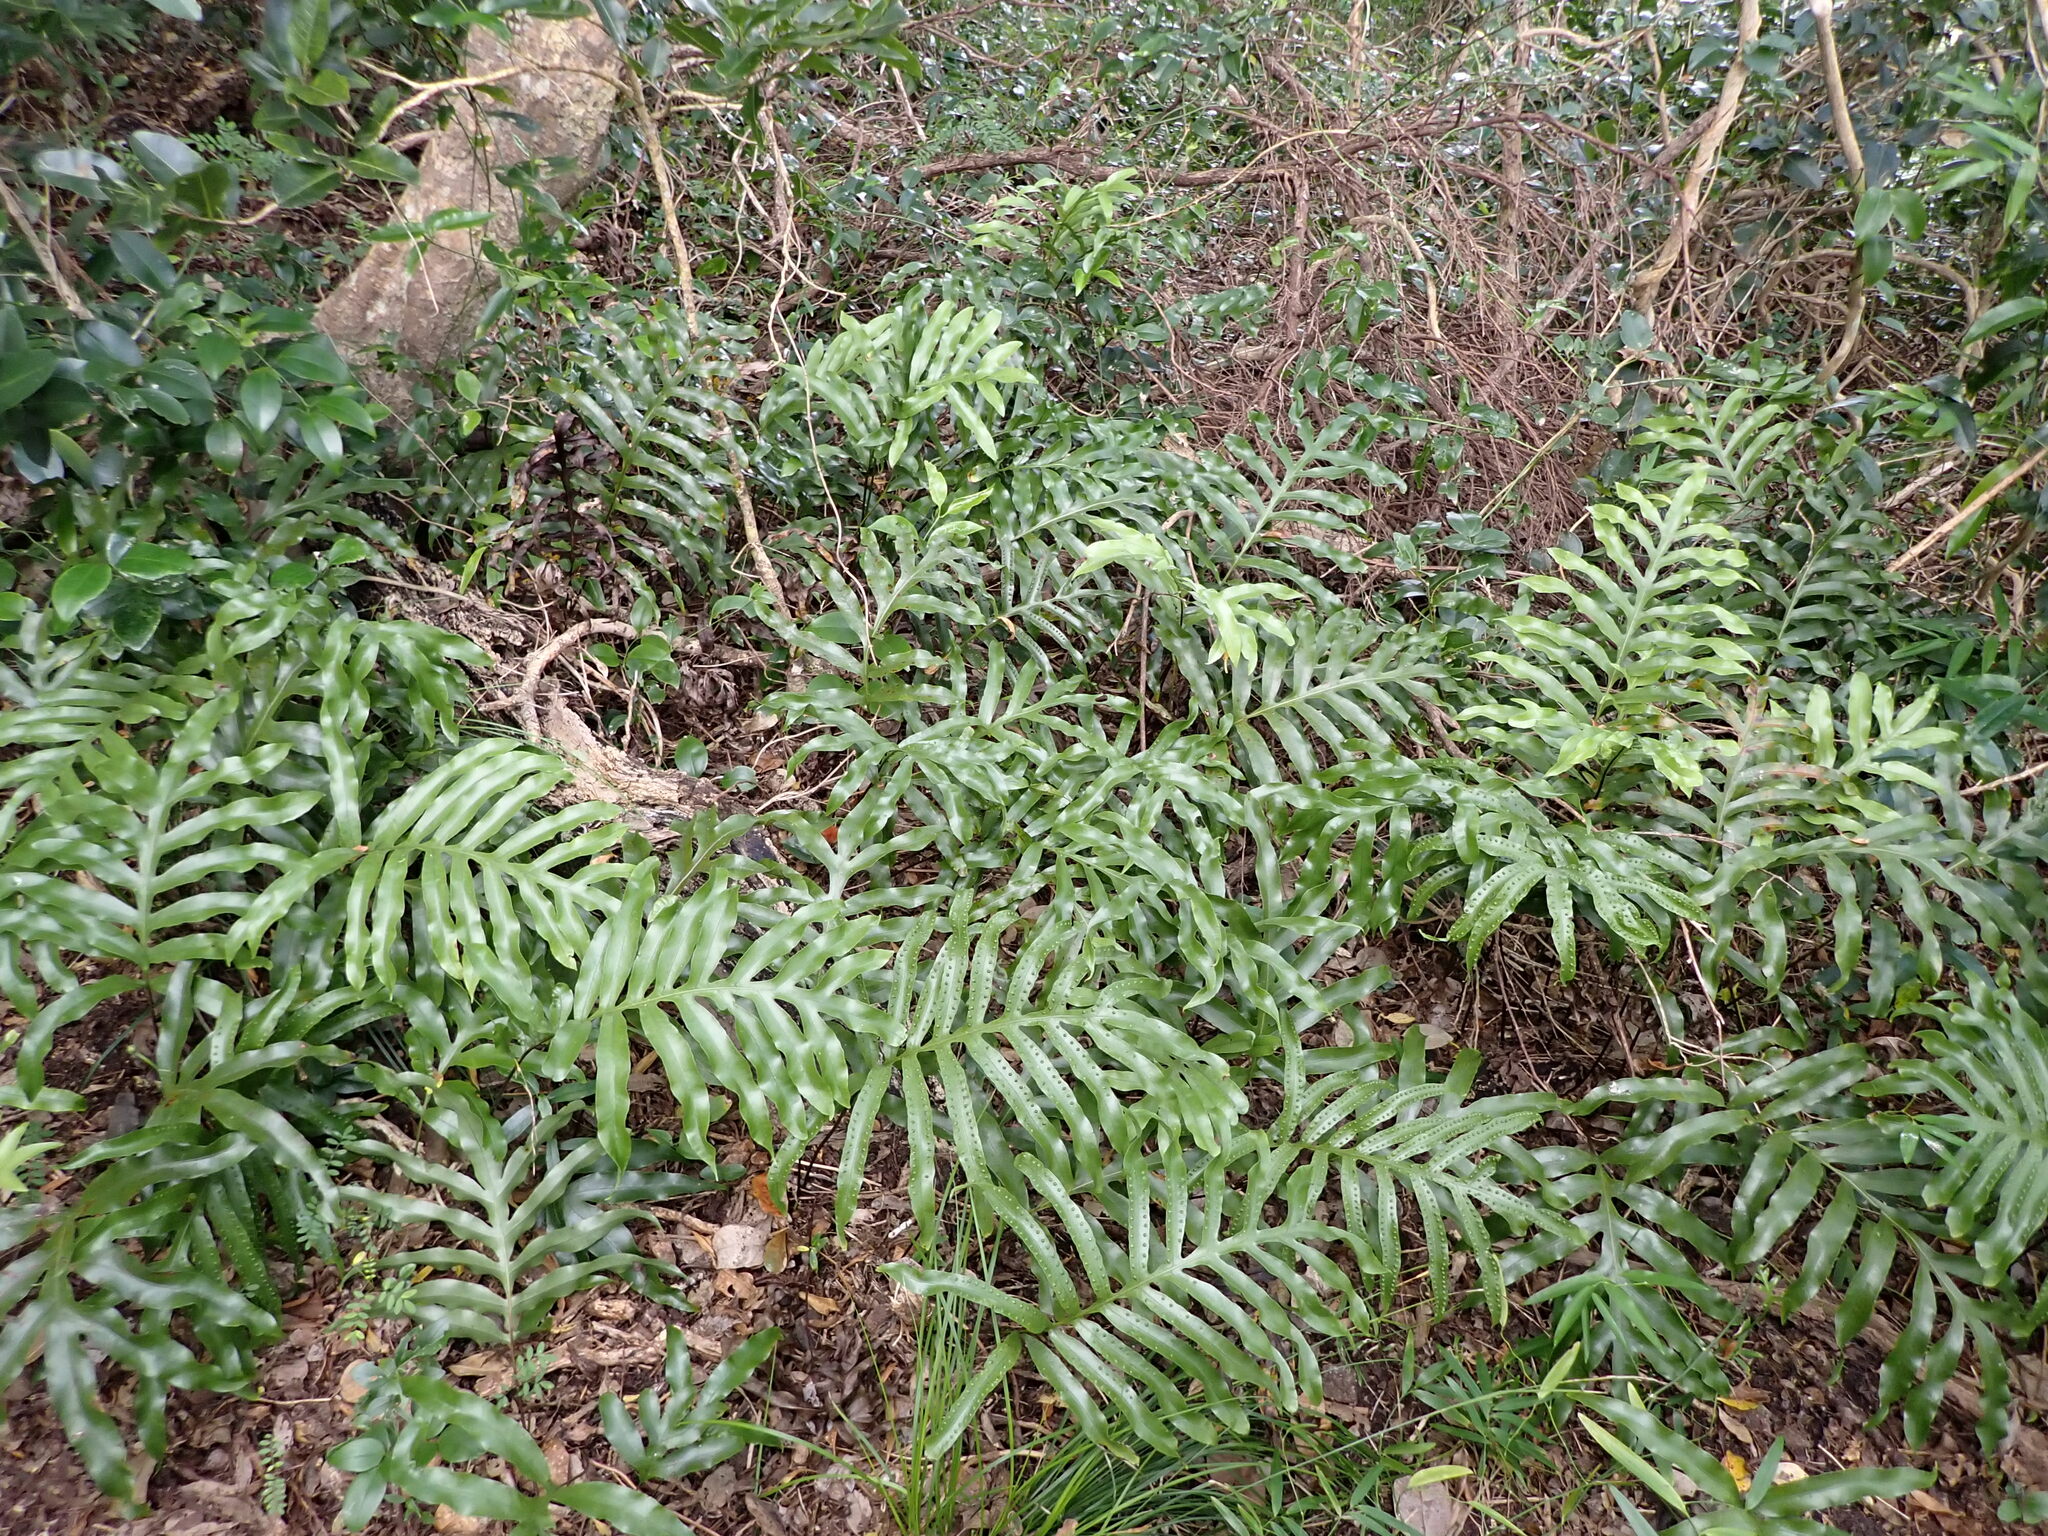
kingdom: Plantae
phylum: Tracheophyta
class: Polypodiopsida
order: Polypodiales
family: Polypodiaceae
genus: Lecanopteris
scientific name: Lecanopteris pustulata
